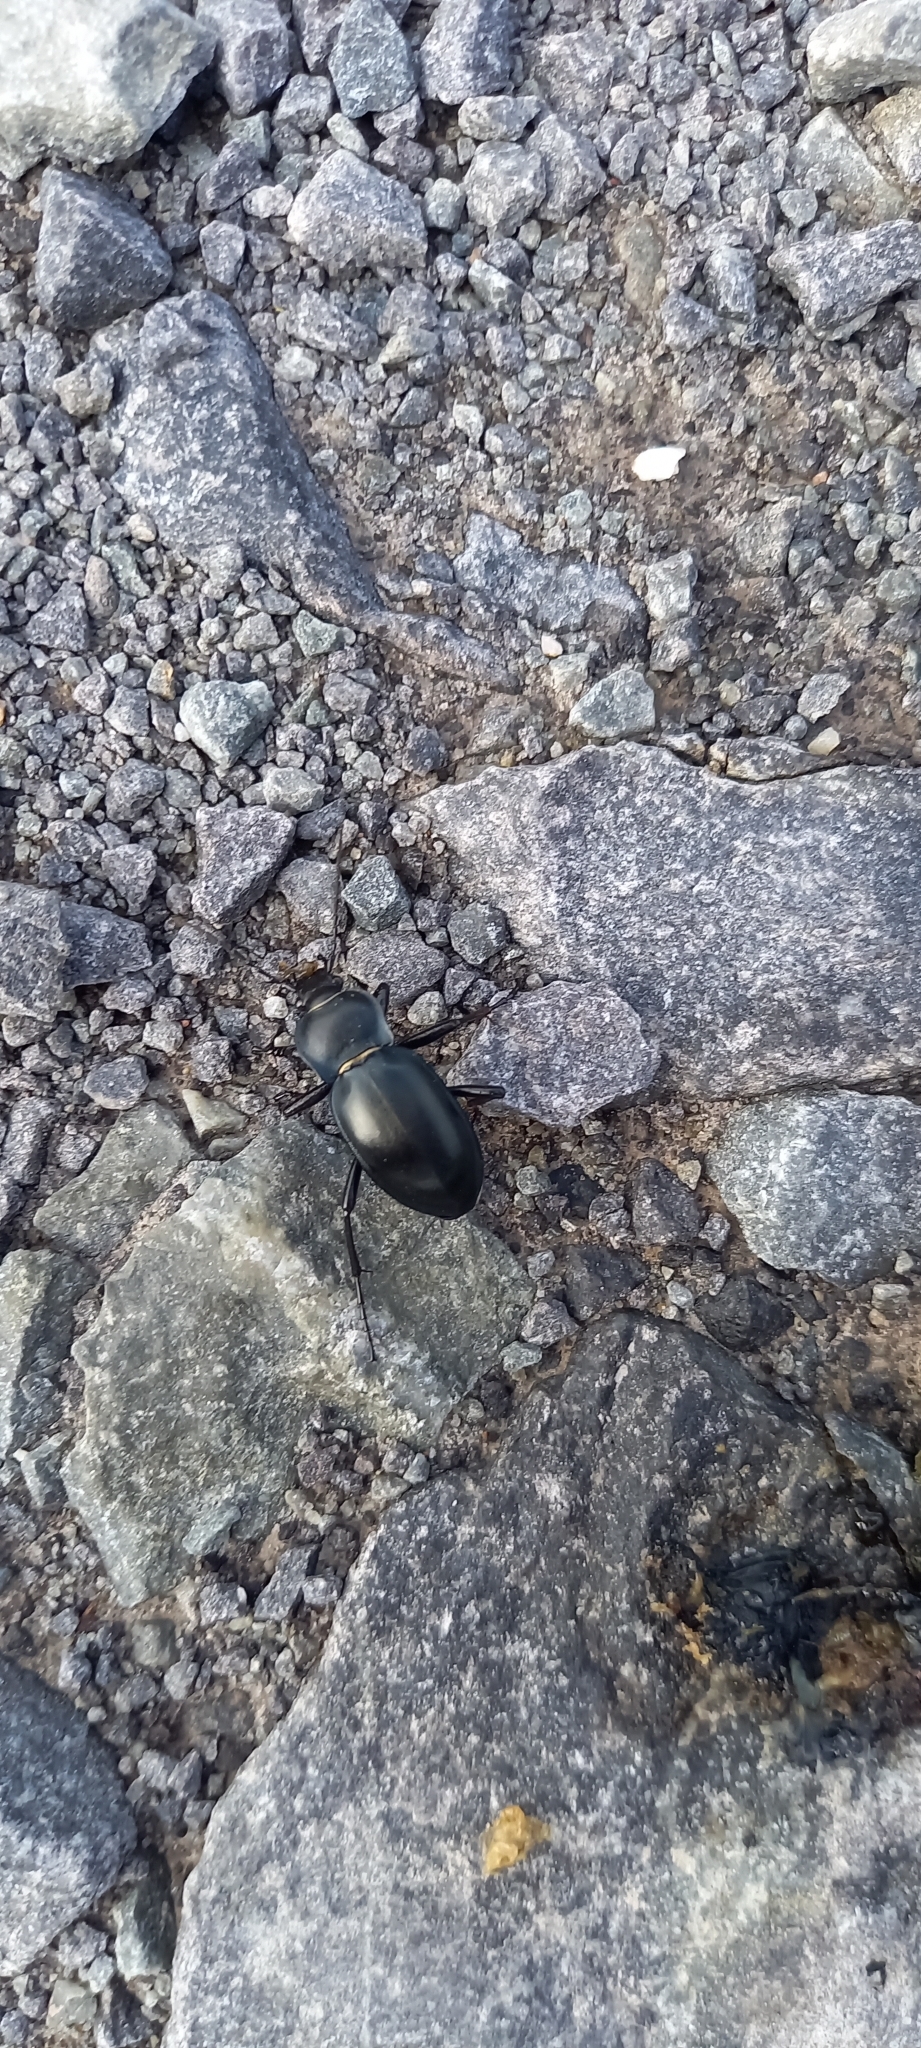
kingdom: Animalia
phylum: Arthropoda
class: Insecta
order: Coleoptera
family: Carabidae
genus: Carabus
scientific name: Carabus glabratus
